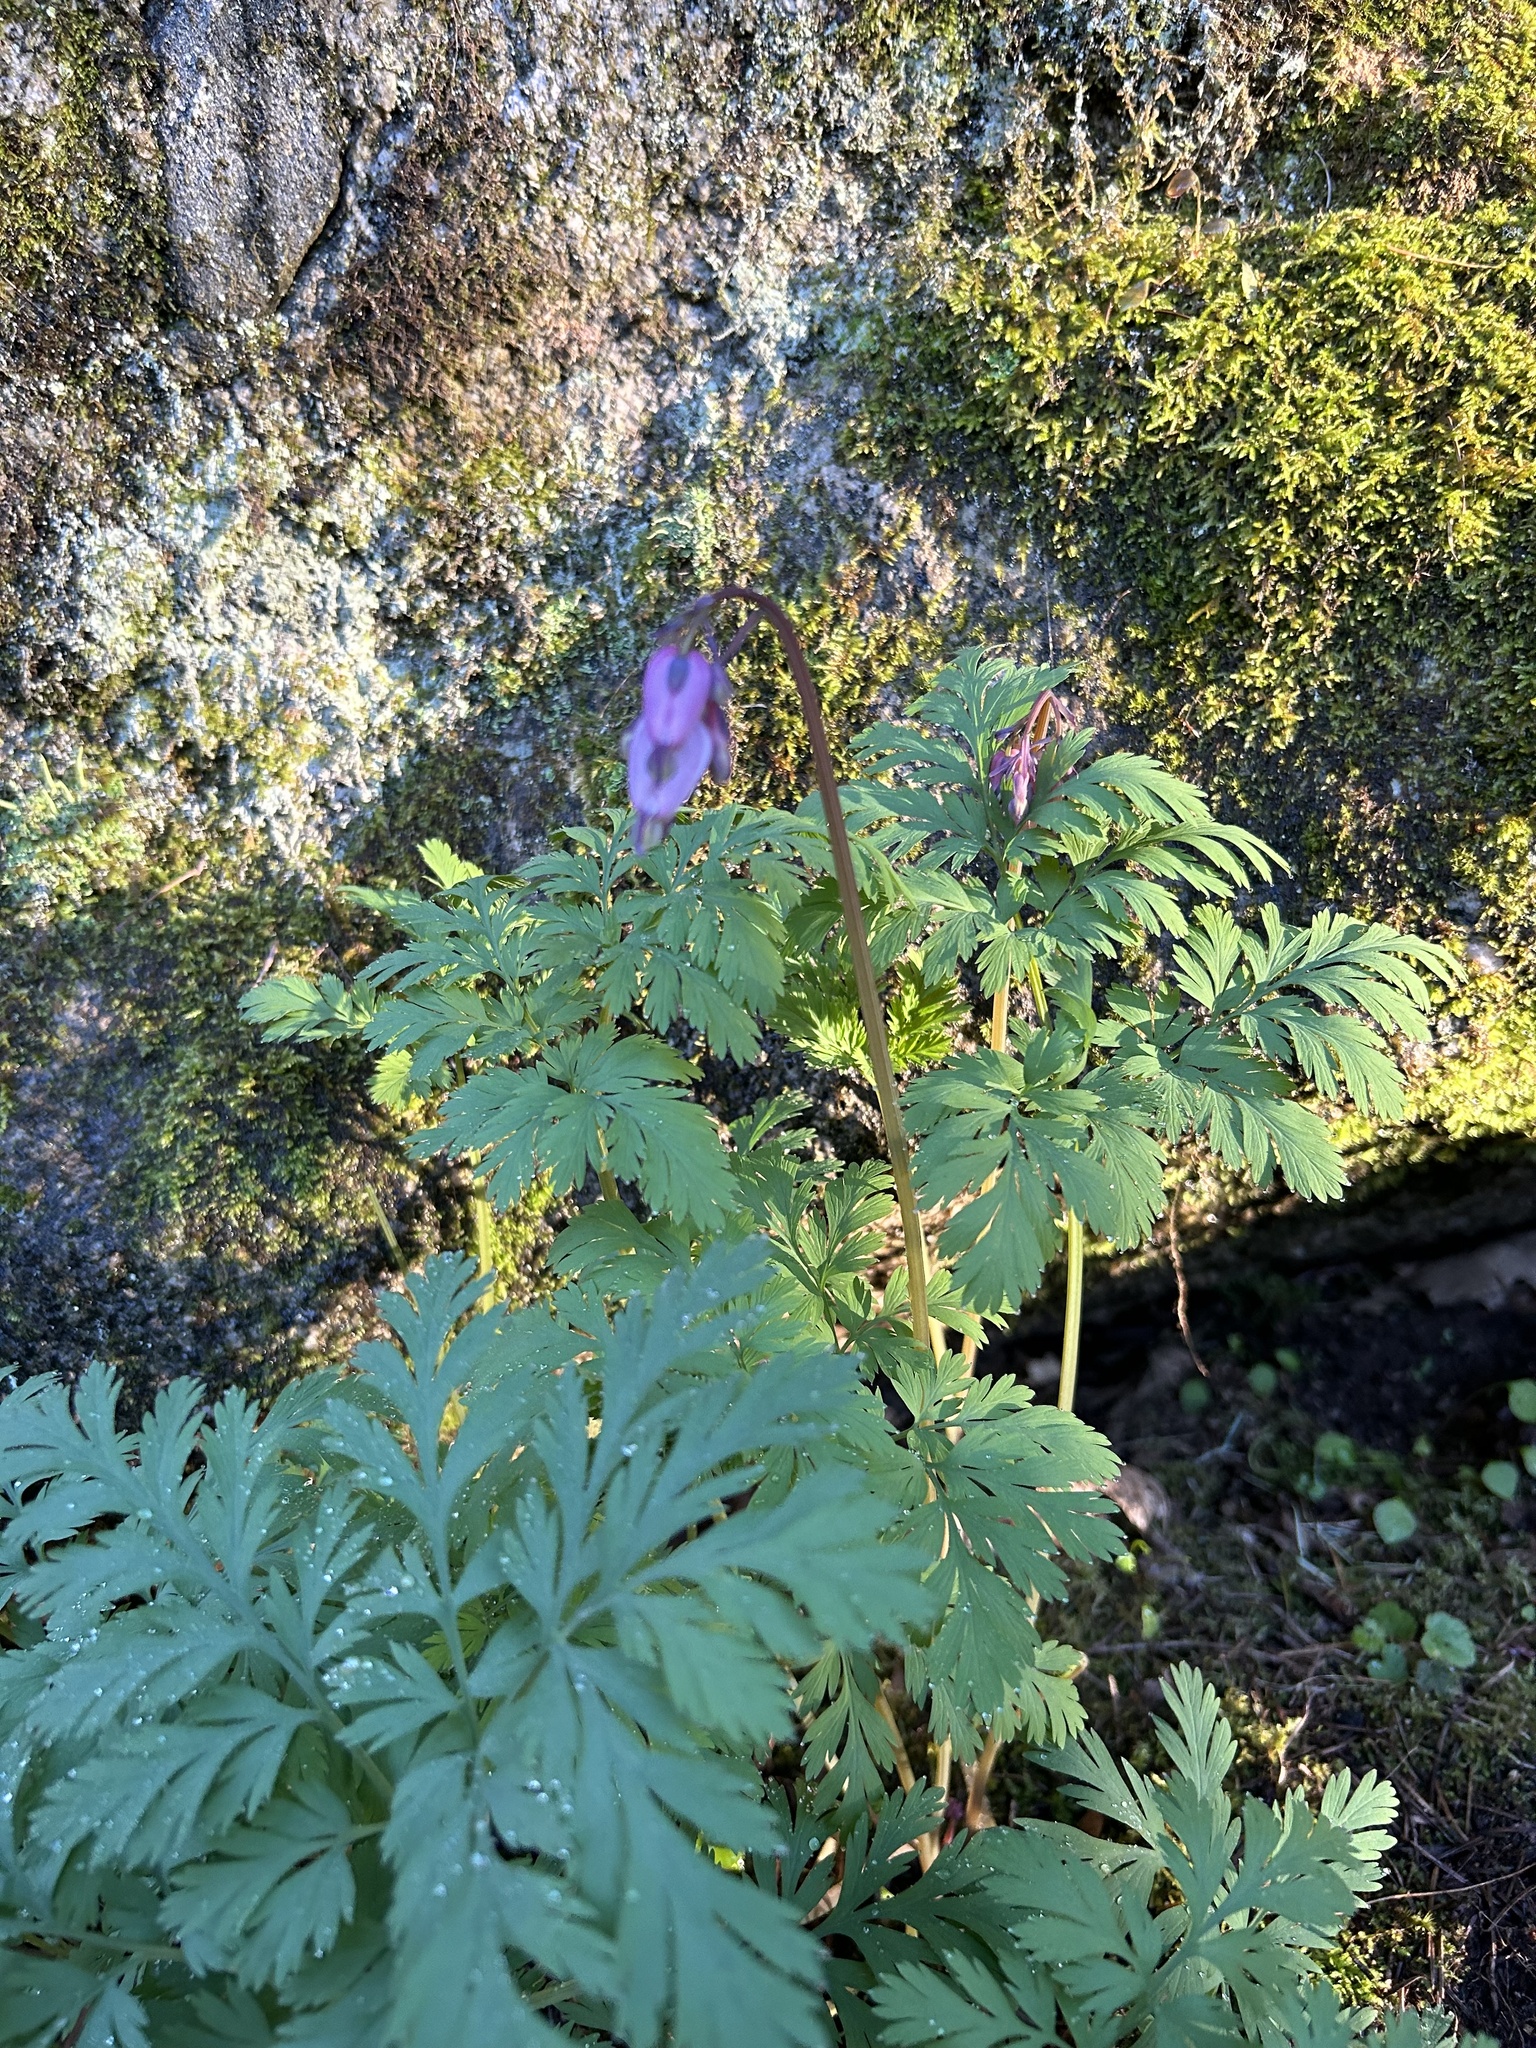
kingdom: Plantae
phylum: Tracheophyta
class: Magnoliopsida
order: Ranunculales
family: Papaveraceae
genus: Dicentra
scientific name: Dicentra formosa
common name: Bleeding-heart
